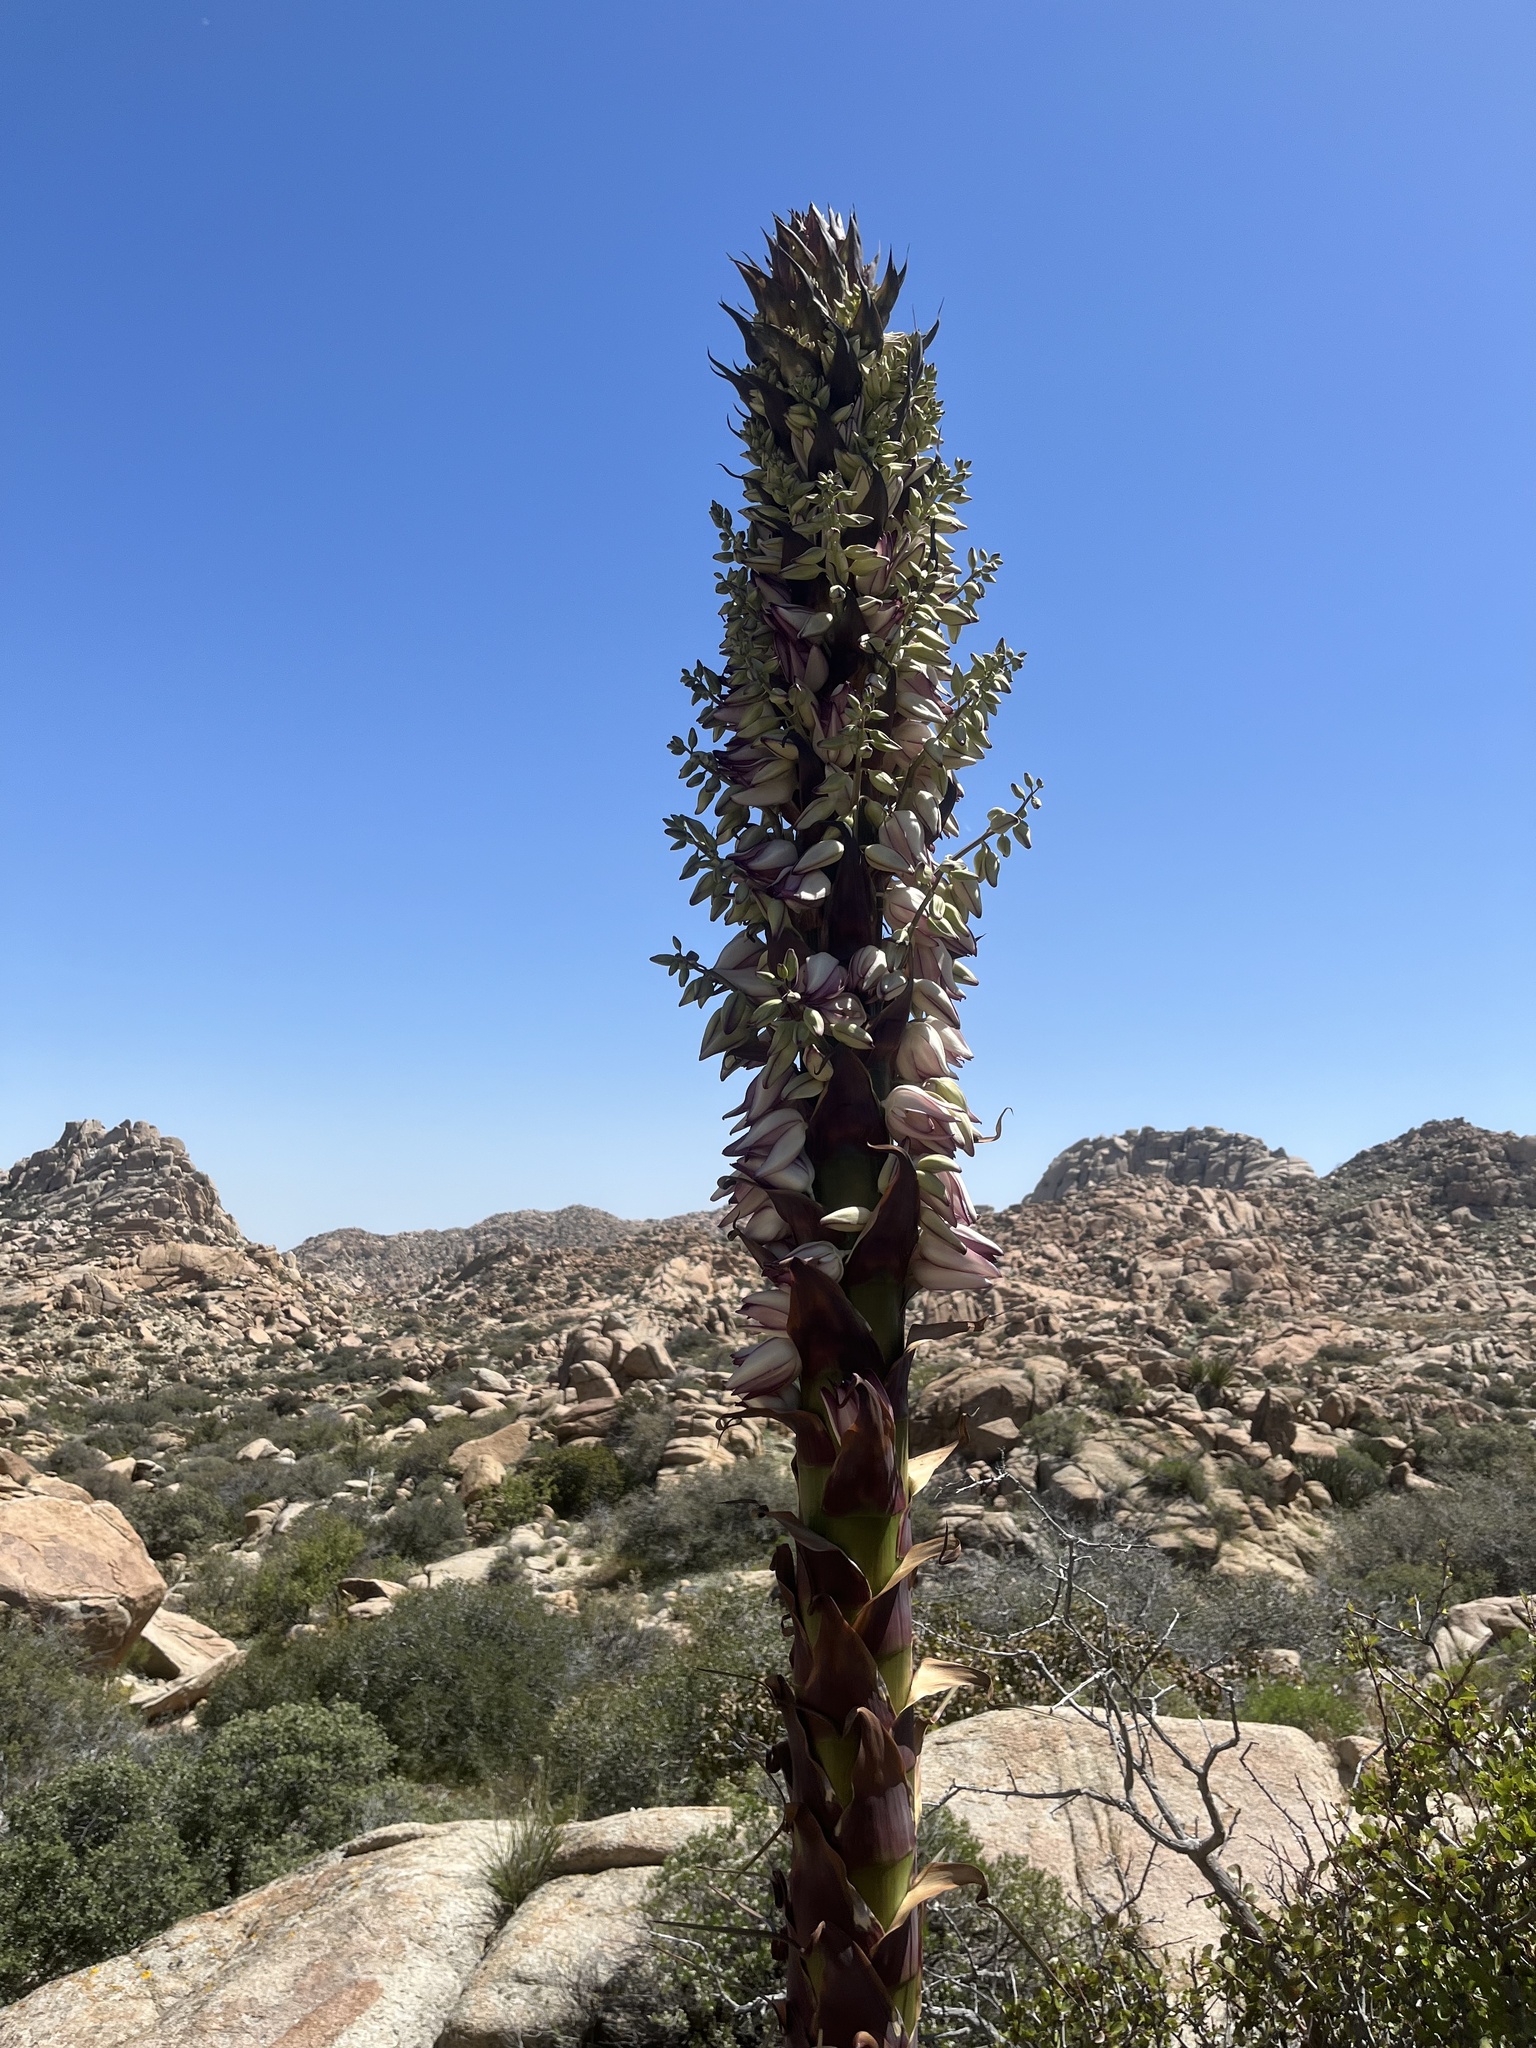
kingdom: Plantae
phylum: Tracheophyta
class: Liliopsida
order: Asparagales
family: Asparagaceae
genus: Hesperoyucca
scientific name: Hesperoyucca whipplei
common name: Our lord's-candle
